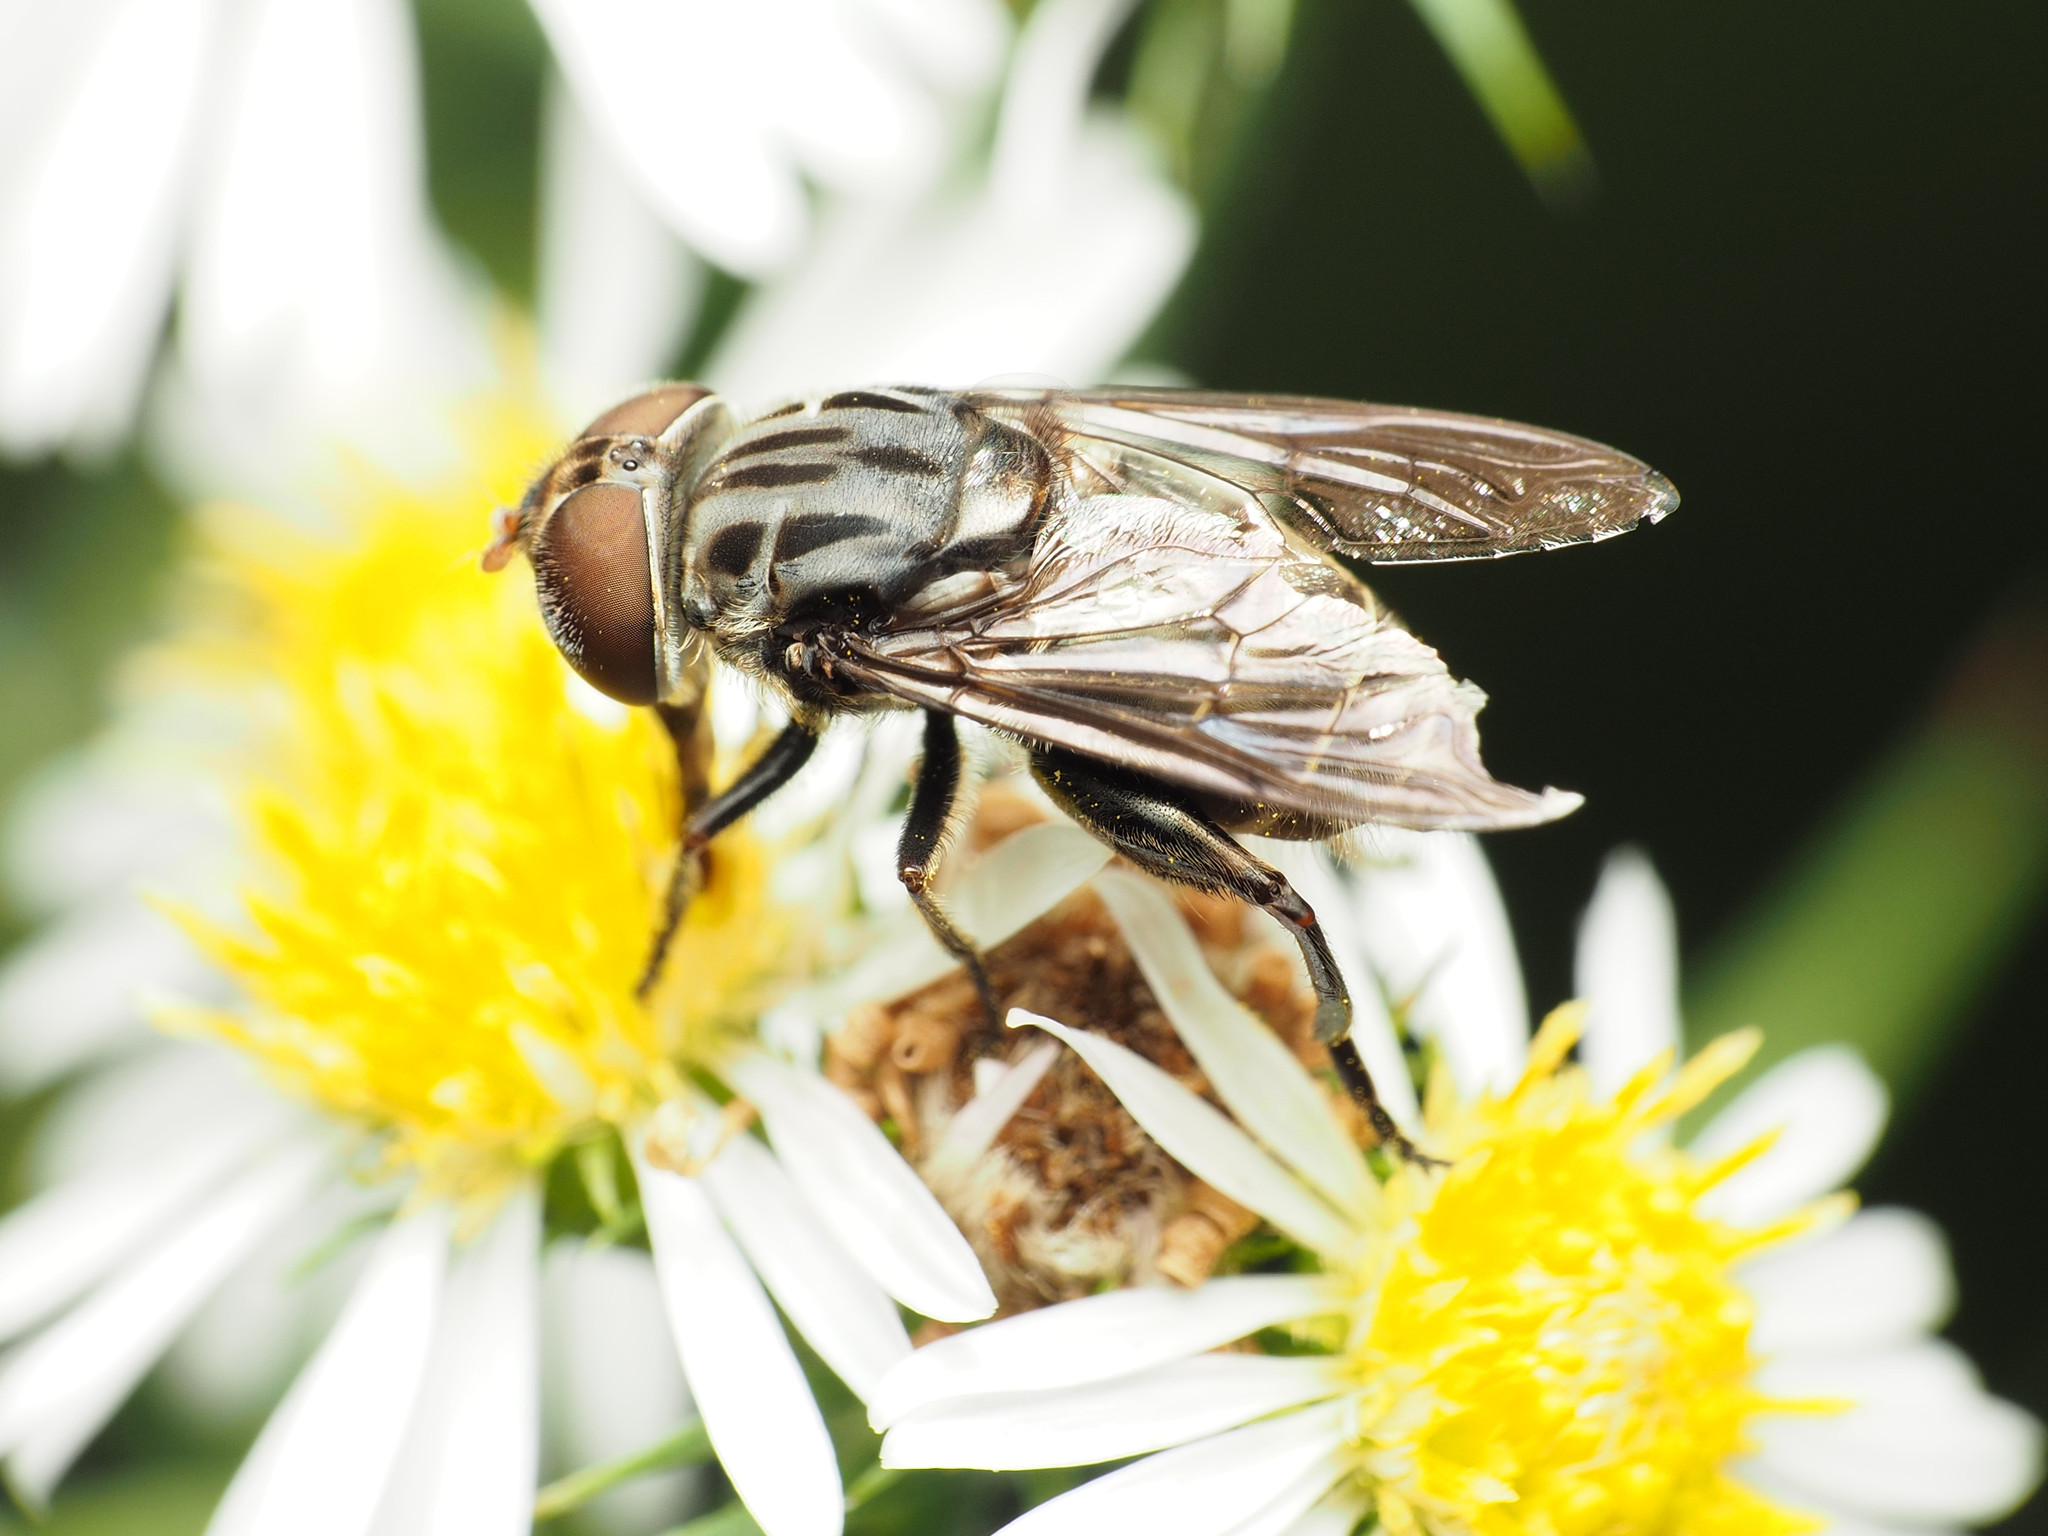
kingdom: Animalia
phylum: Arthropoda
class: Insecta
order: Diptera
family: Syrphidae
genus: Palpada
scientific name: Palpada furcata
